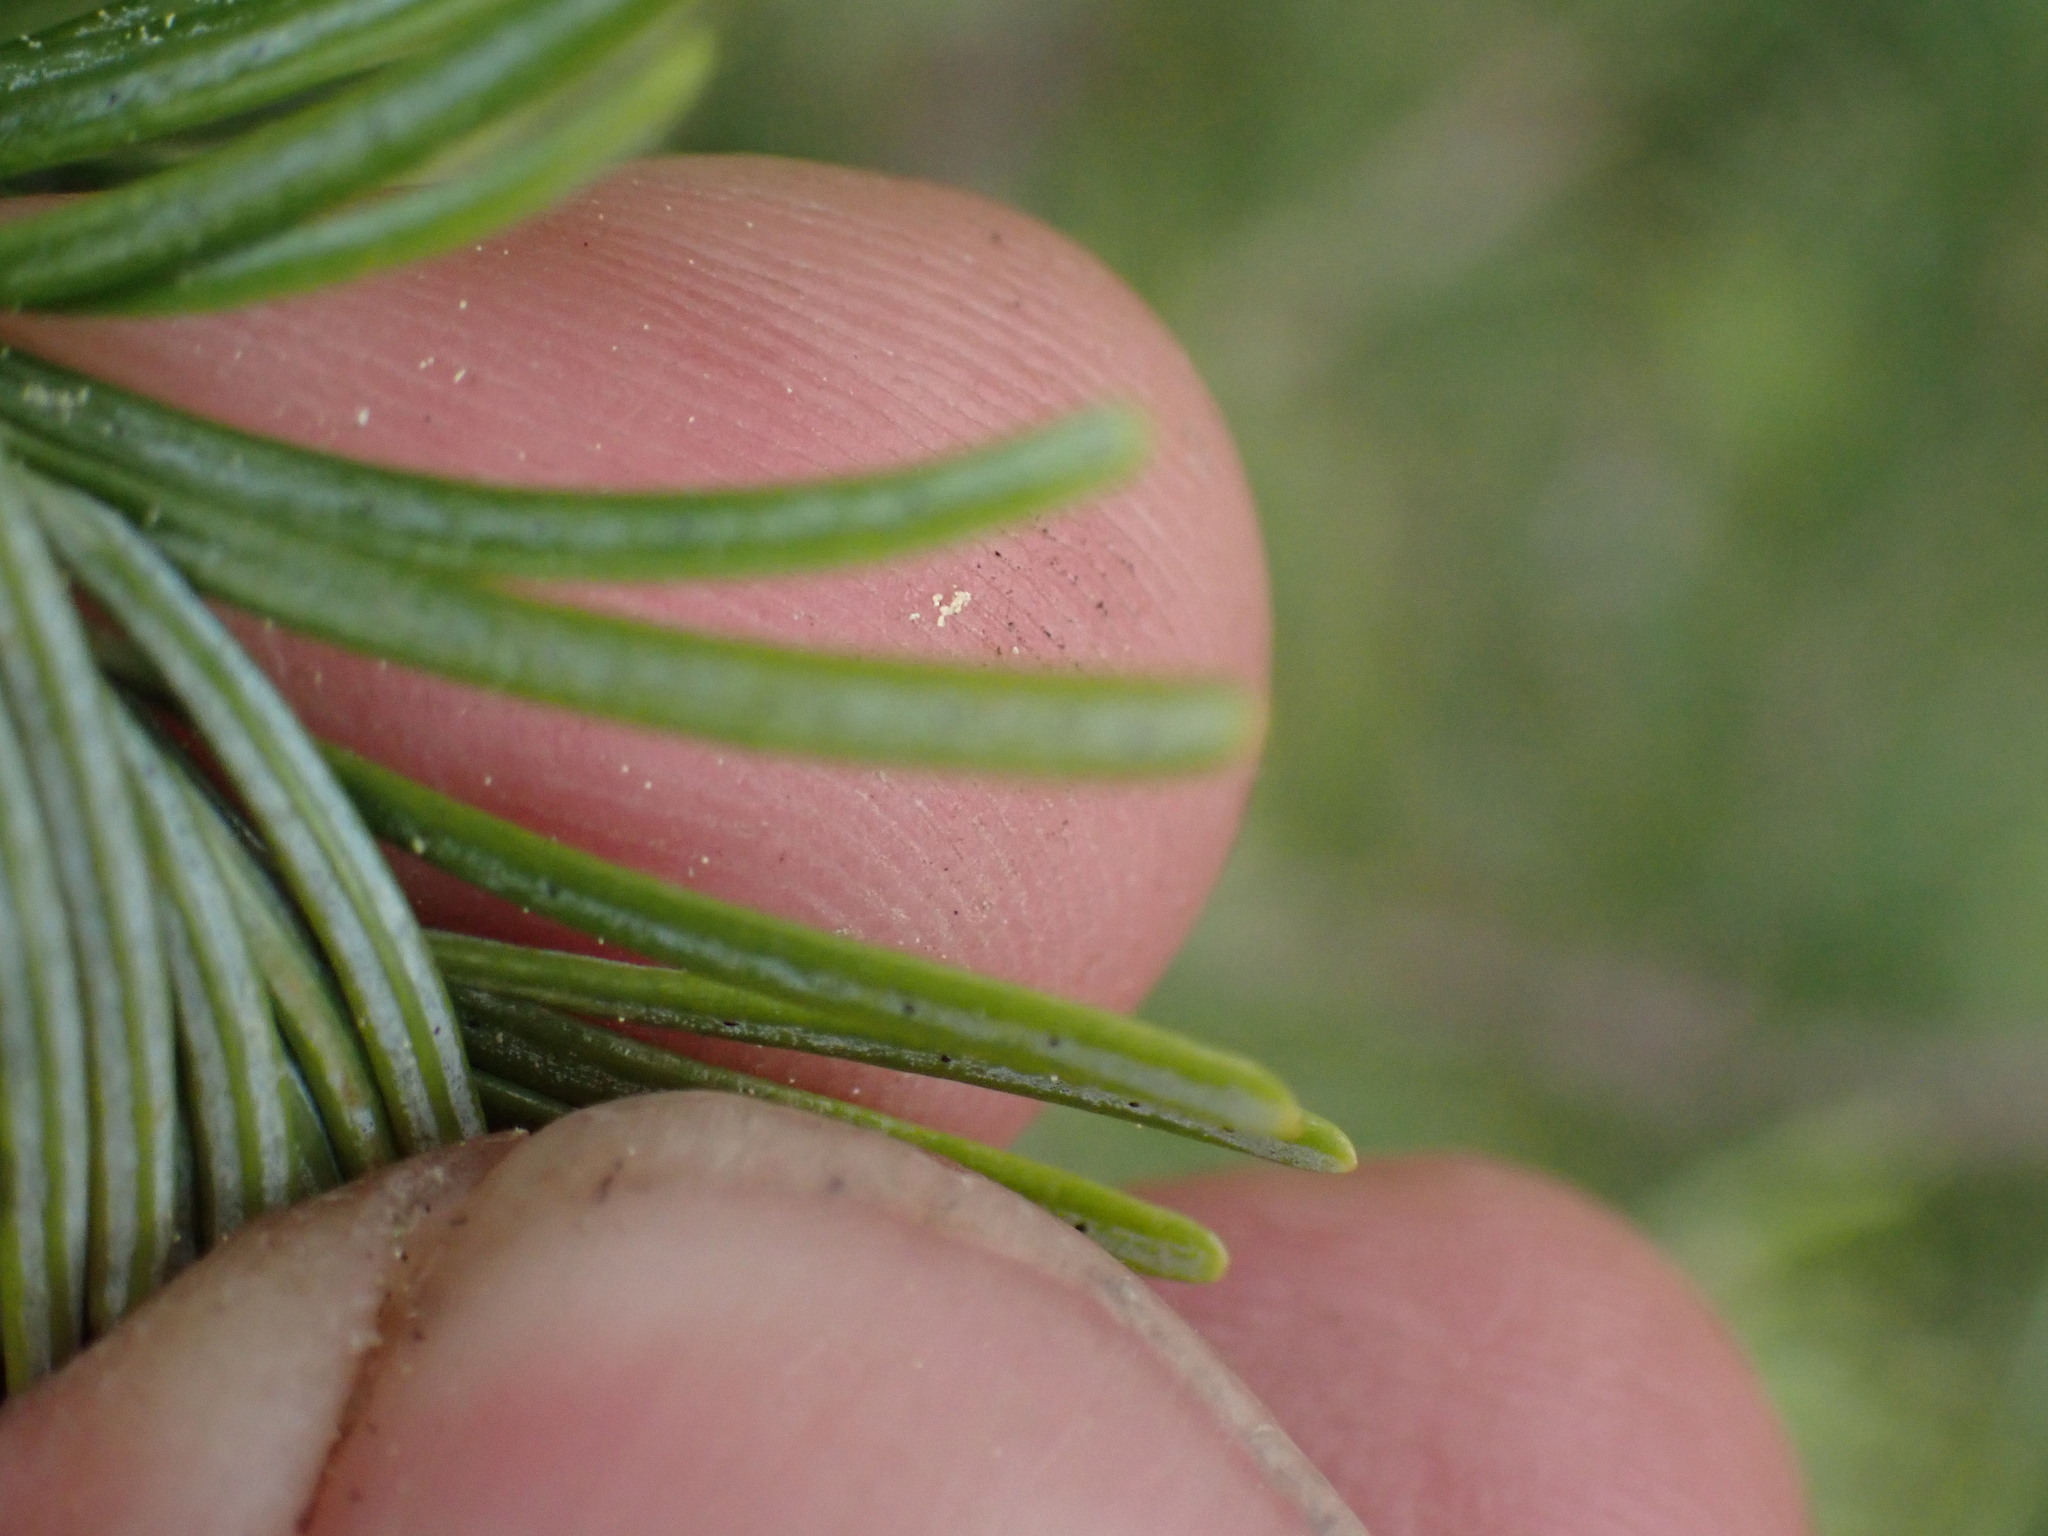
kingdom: Plantae
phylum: Tracheophyta
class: Pinopsida
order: Pinales
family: Pinaceae
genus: Abies
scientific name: Abies lasiocarpa
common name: Subalpine fir
